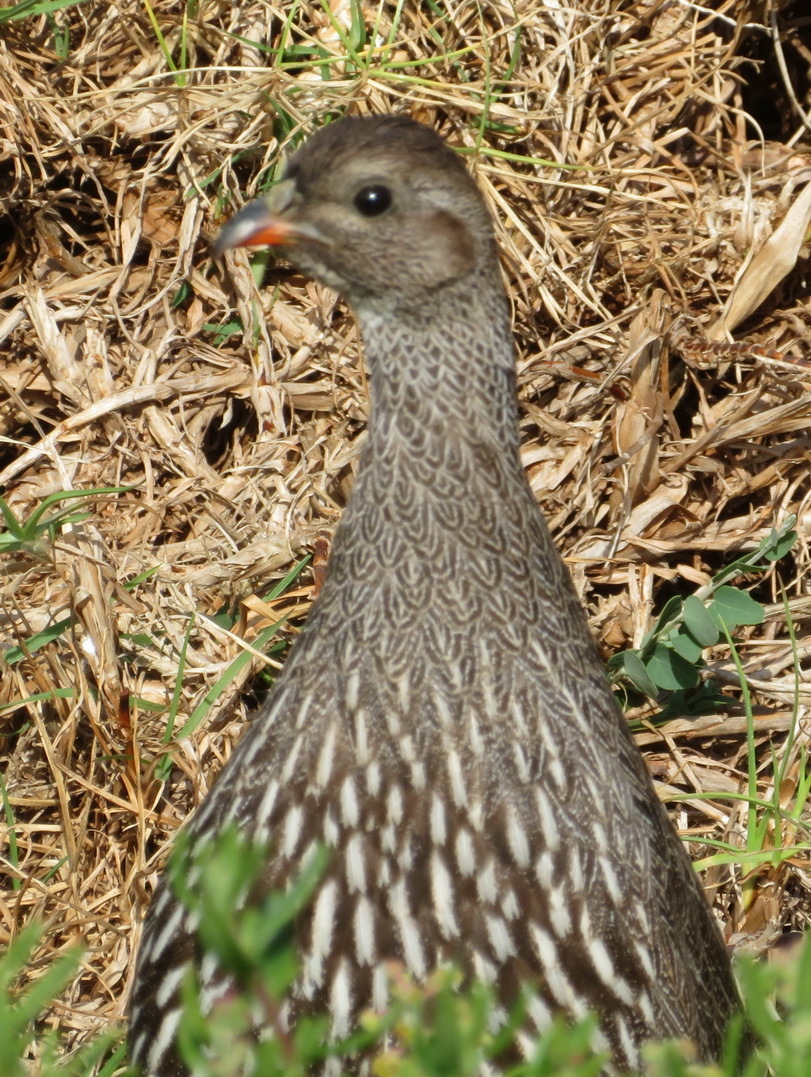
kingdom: Animalia
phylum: Chordata
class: Aves
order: Galliformes
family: Phasianidae
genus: Pternistis
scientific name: Pternistis capensis
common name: Cape spurfowl
